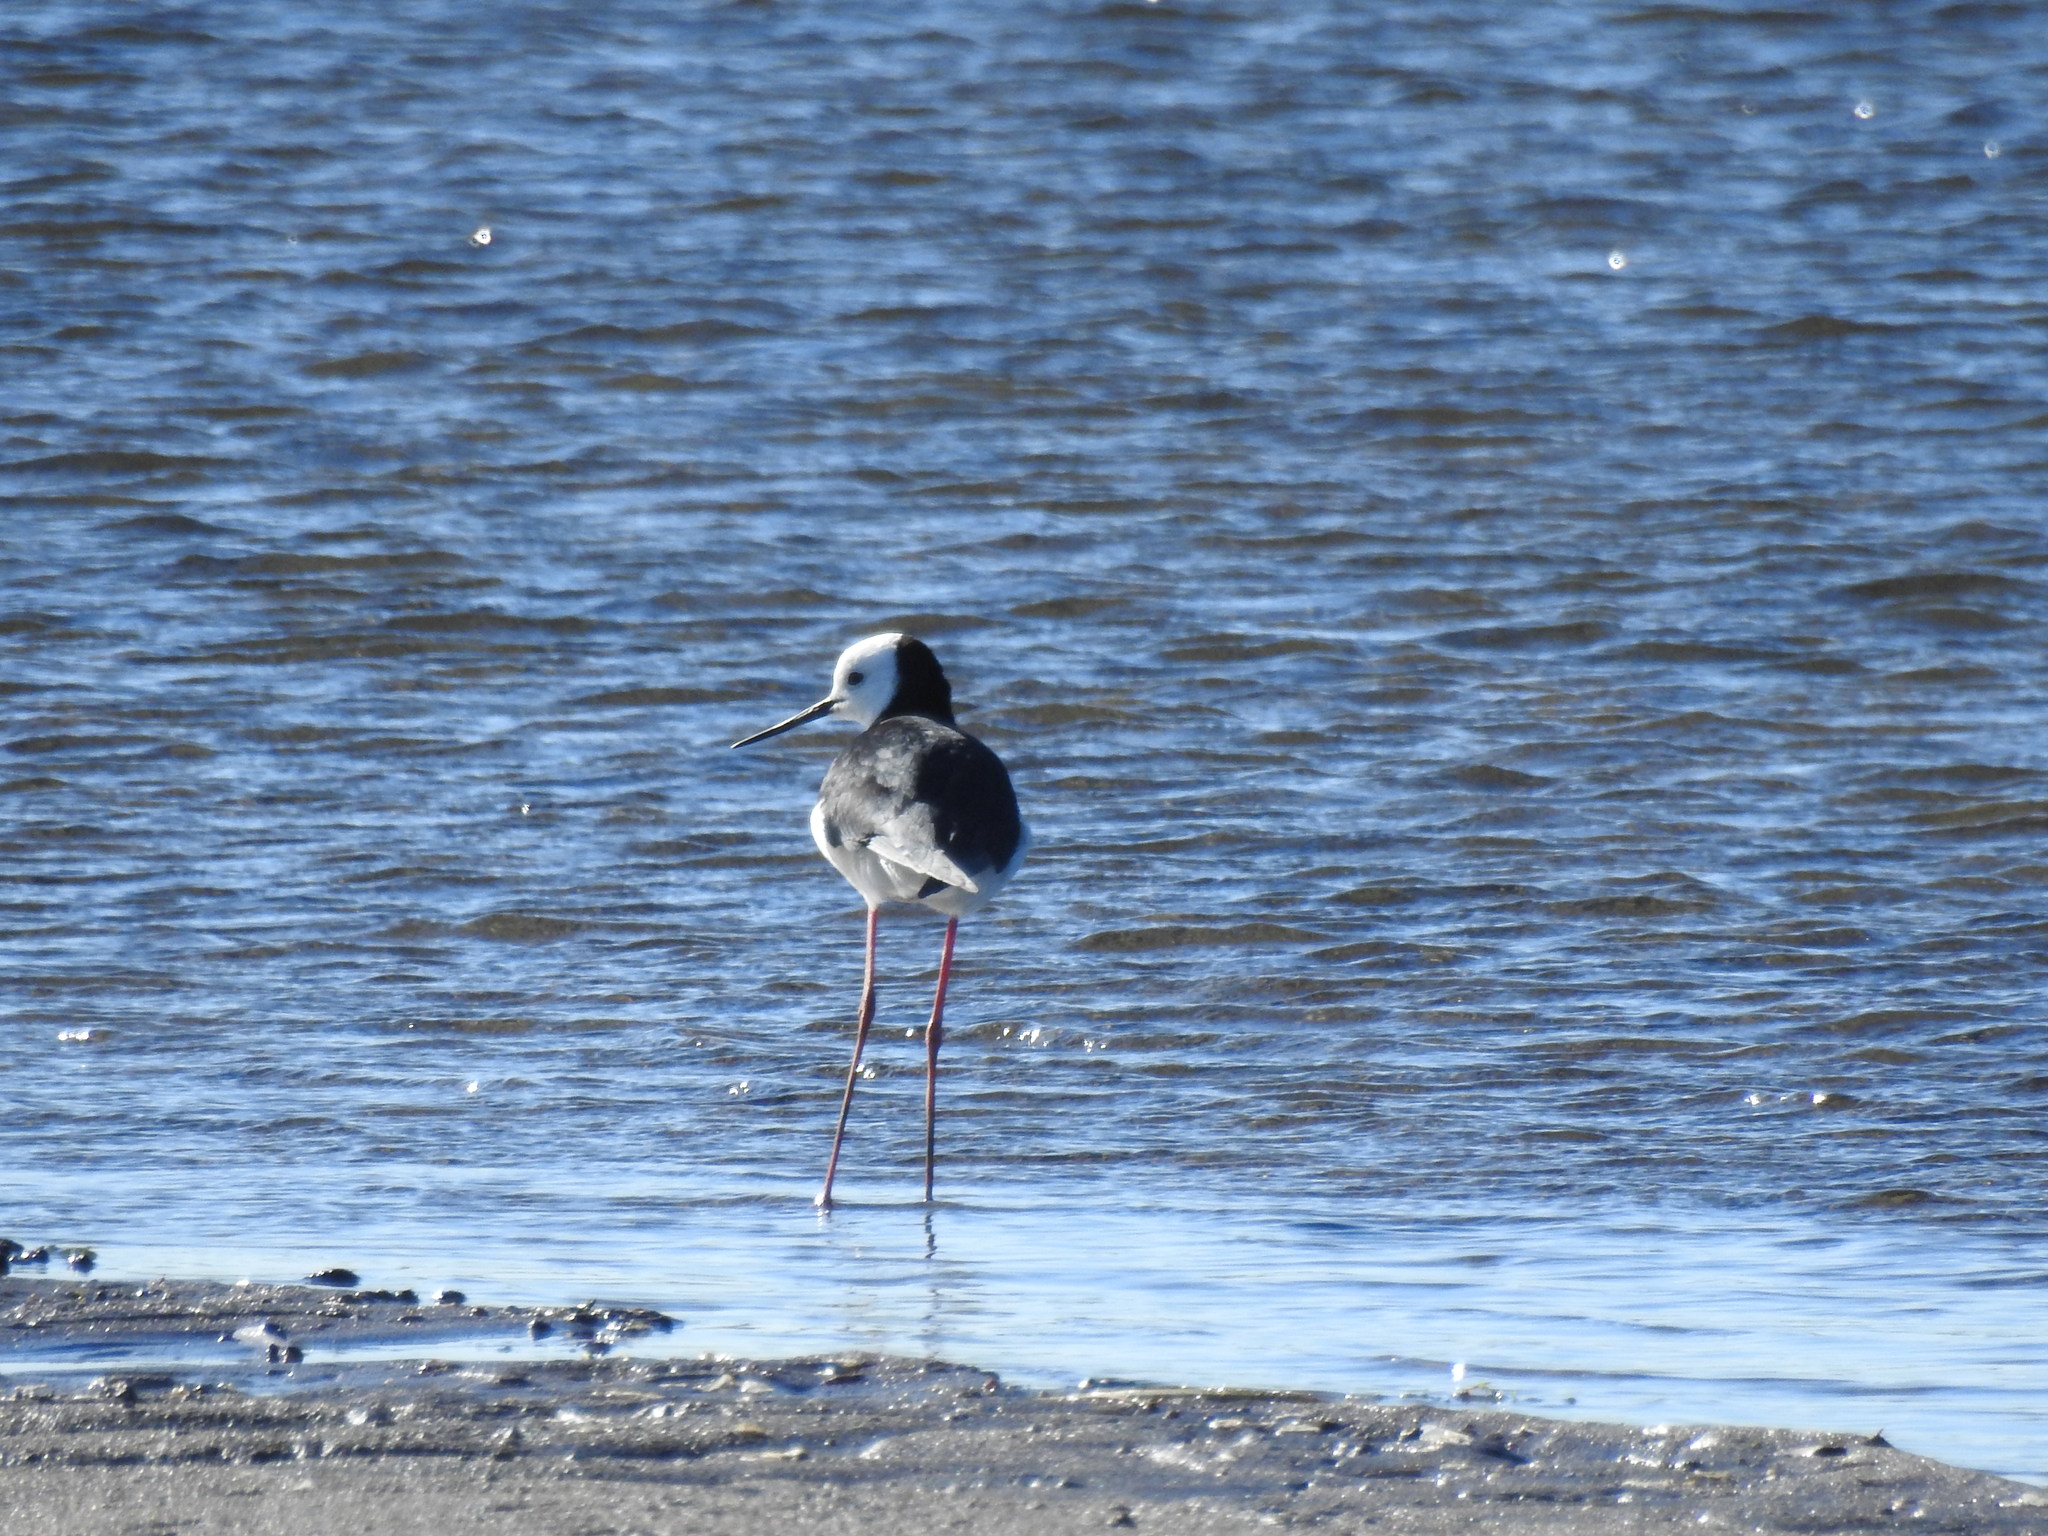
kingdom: Animalia
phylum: Chordata
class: Aves
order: Charadriiformes
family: Recurvirostridae
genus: Himantopus
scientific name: Himantopus leucocephalus
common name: White-headed stilt
